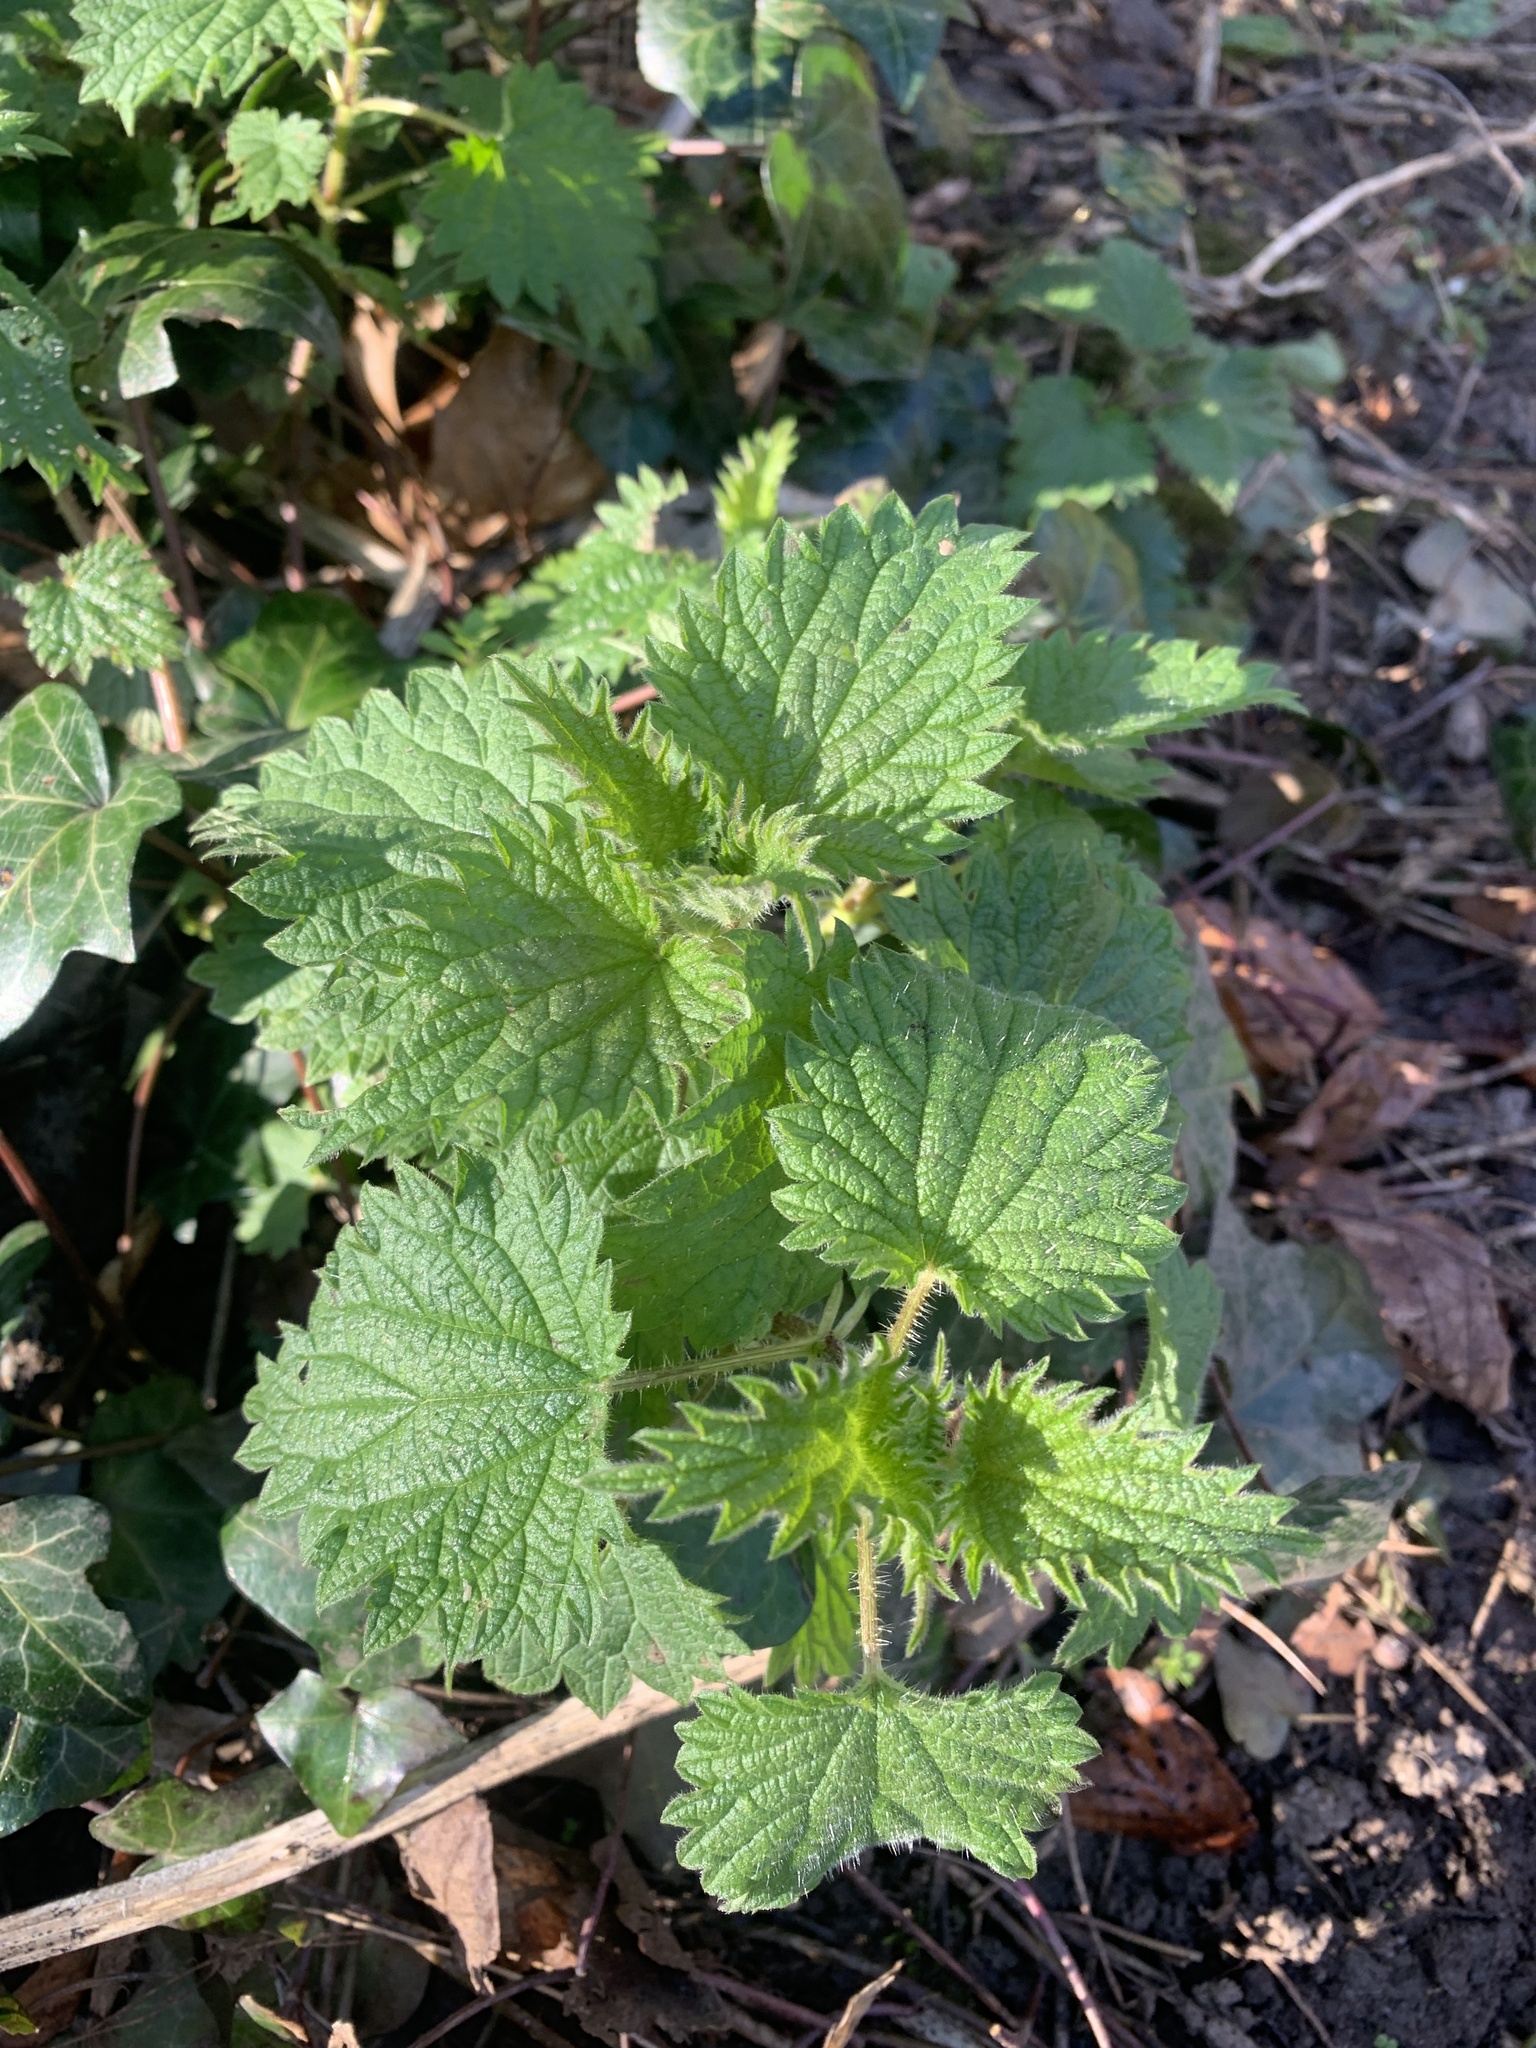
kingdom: Plantae
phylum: Tracheophyta
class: Magnoliopsida
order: Rosales
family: Urticaceae
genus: Urtica
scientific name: Urtica dioica
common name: Common nettle
